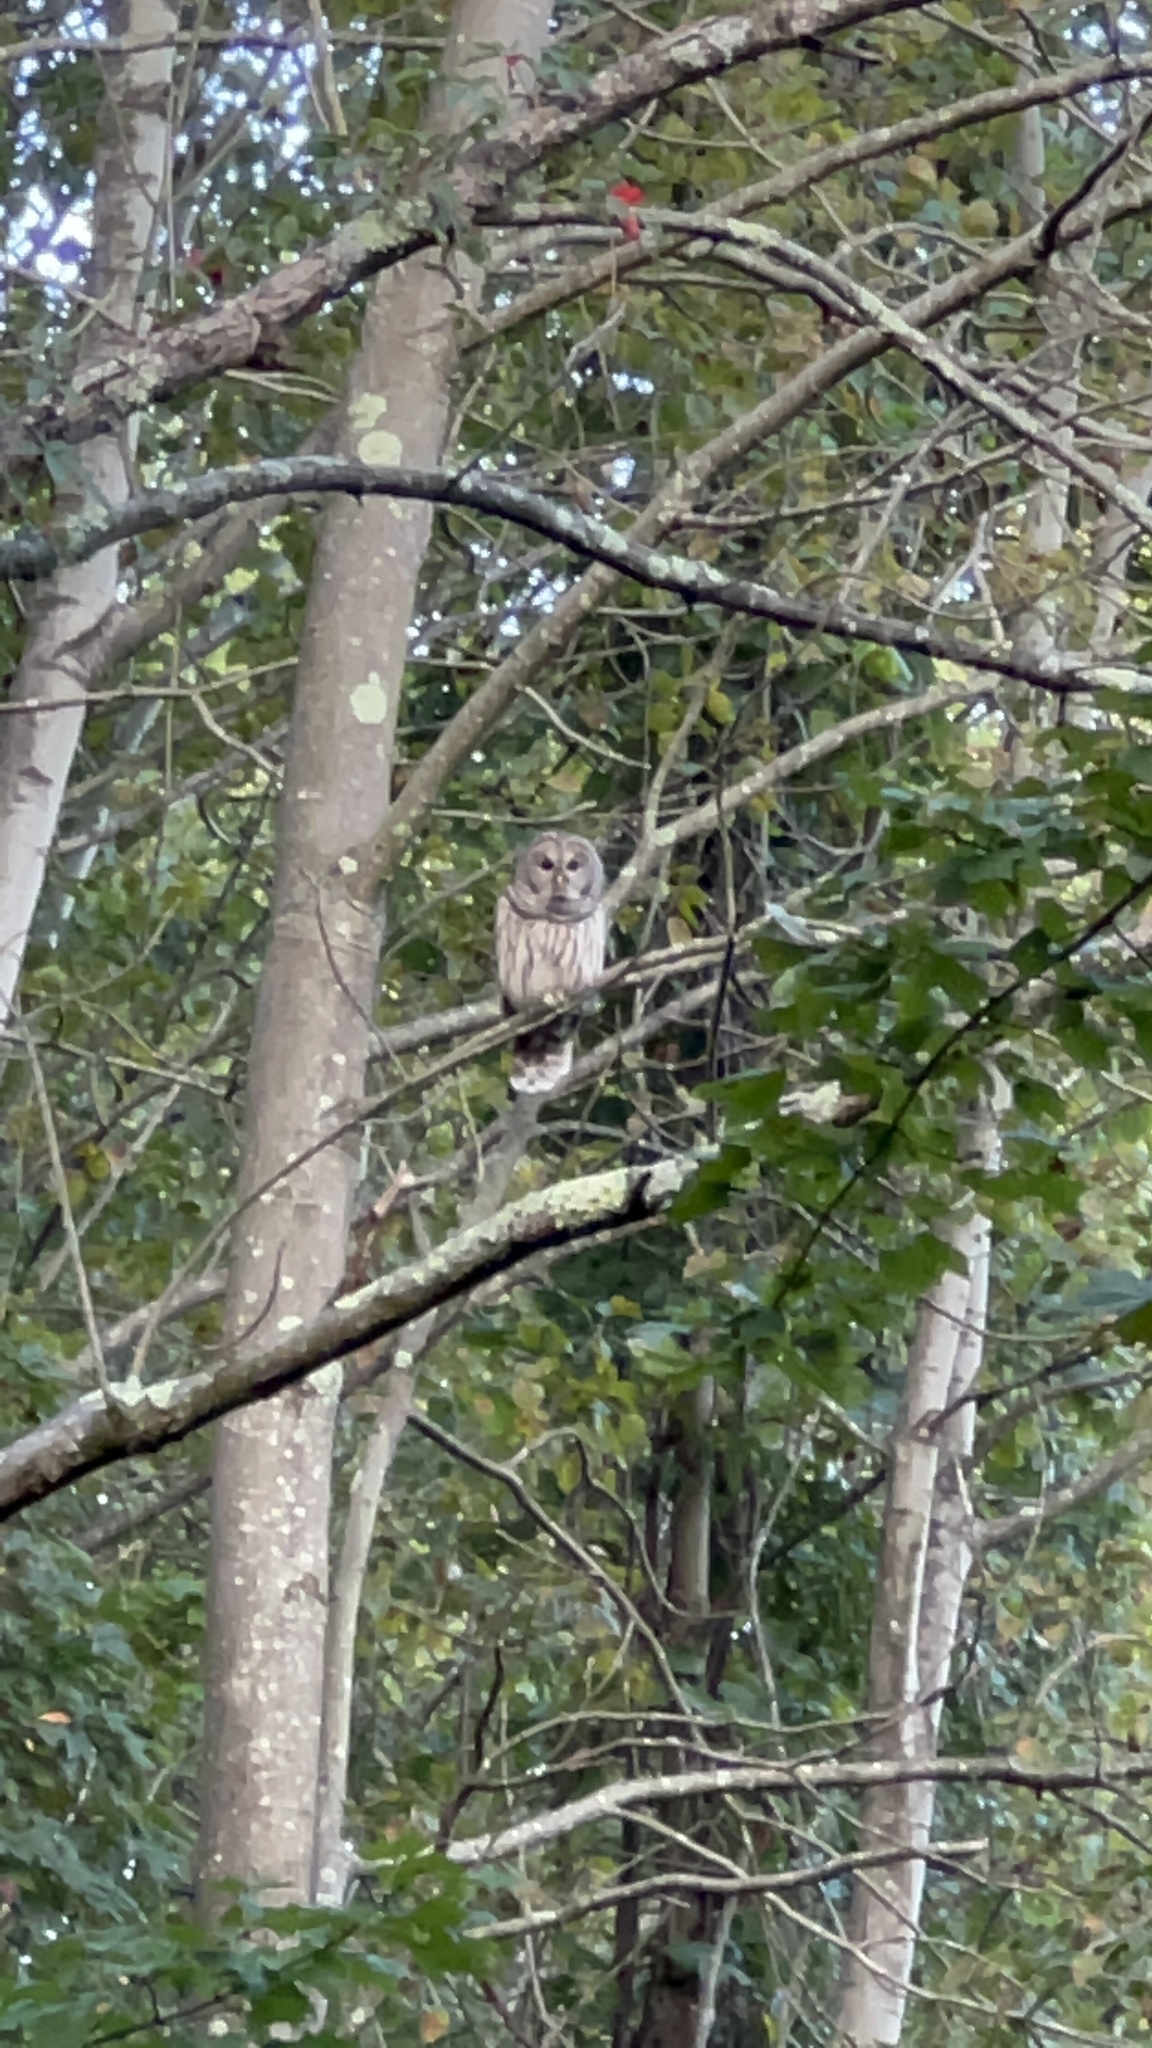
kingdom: Animalia
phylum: Chordata
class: Aves
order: Strigiformes
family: Strigidae
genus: Strix
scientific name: Strix varia
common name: Barred owl
